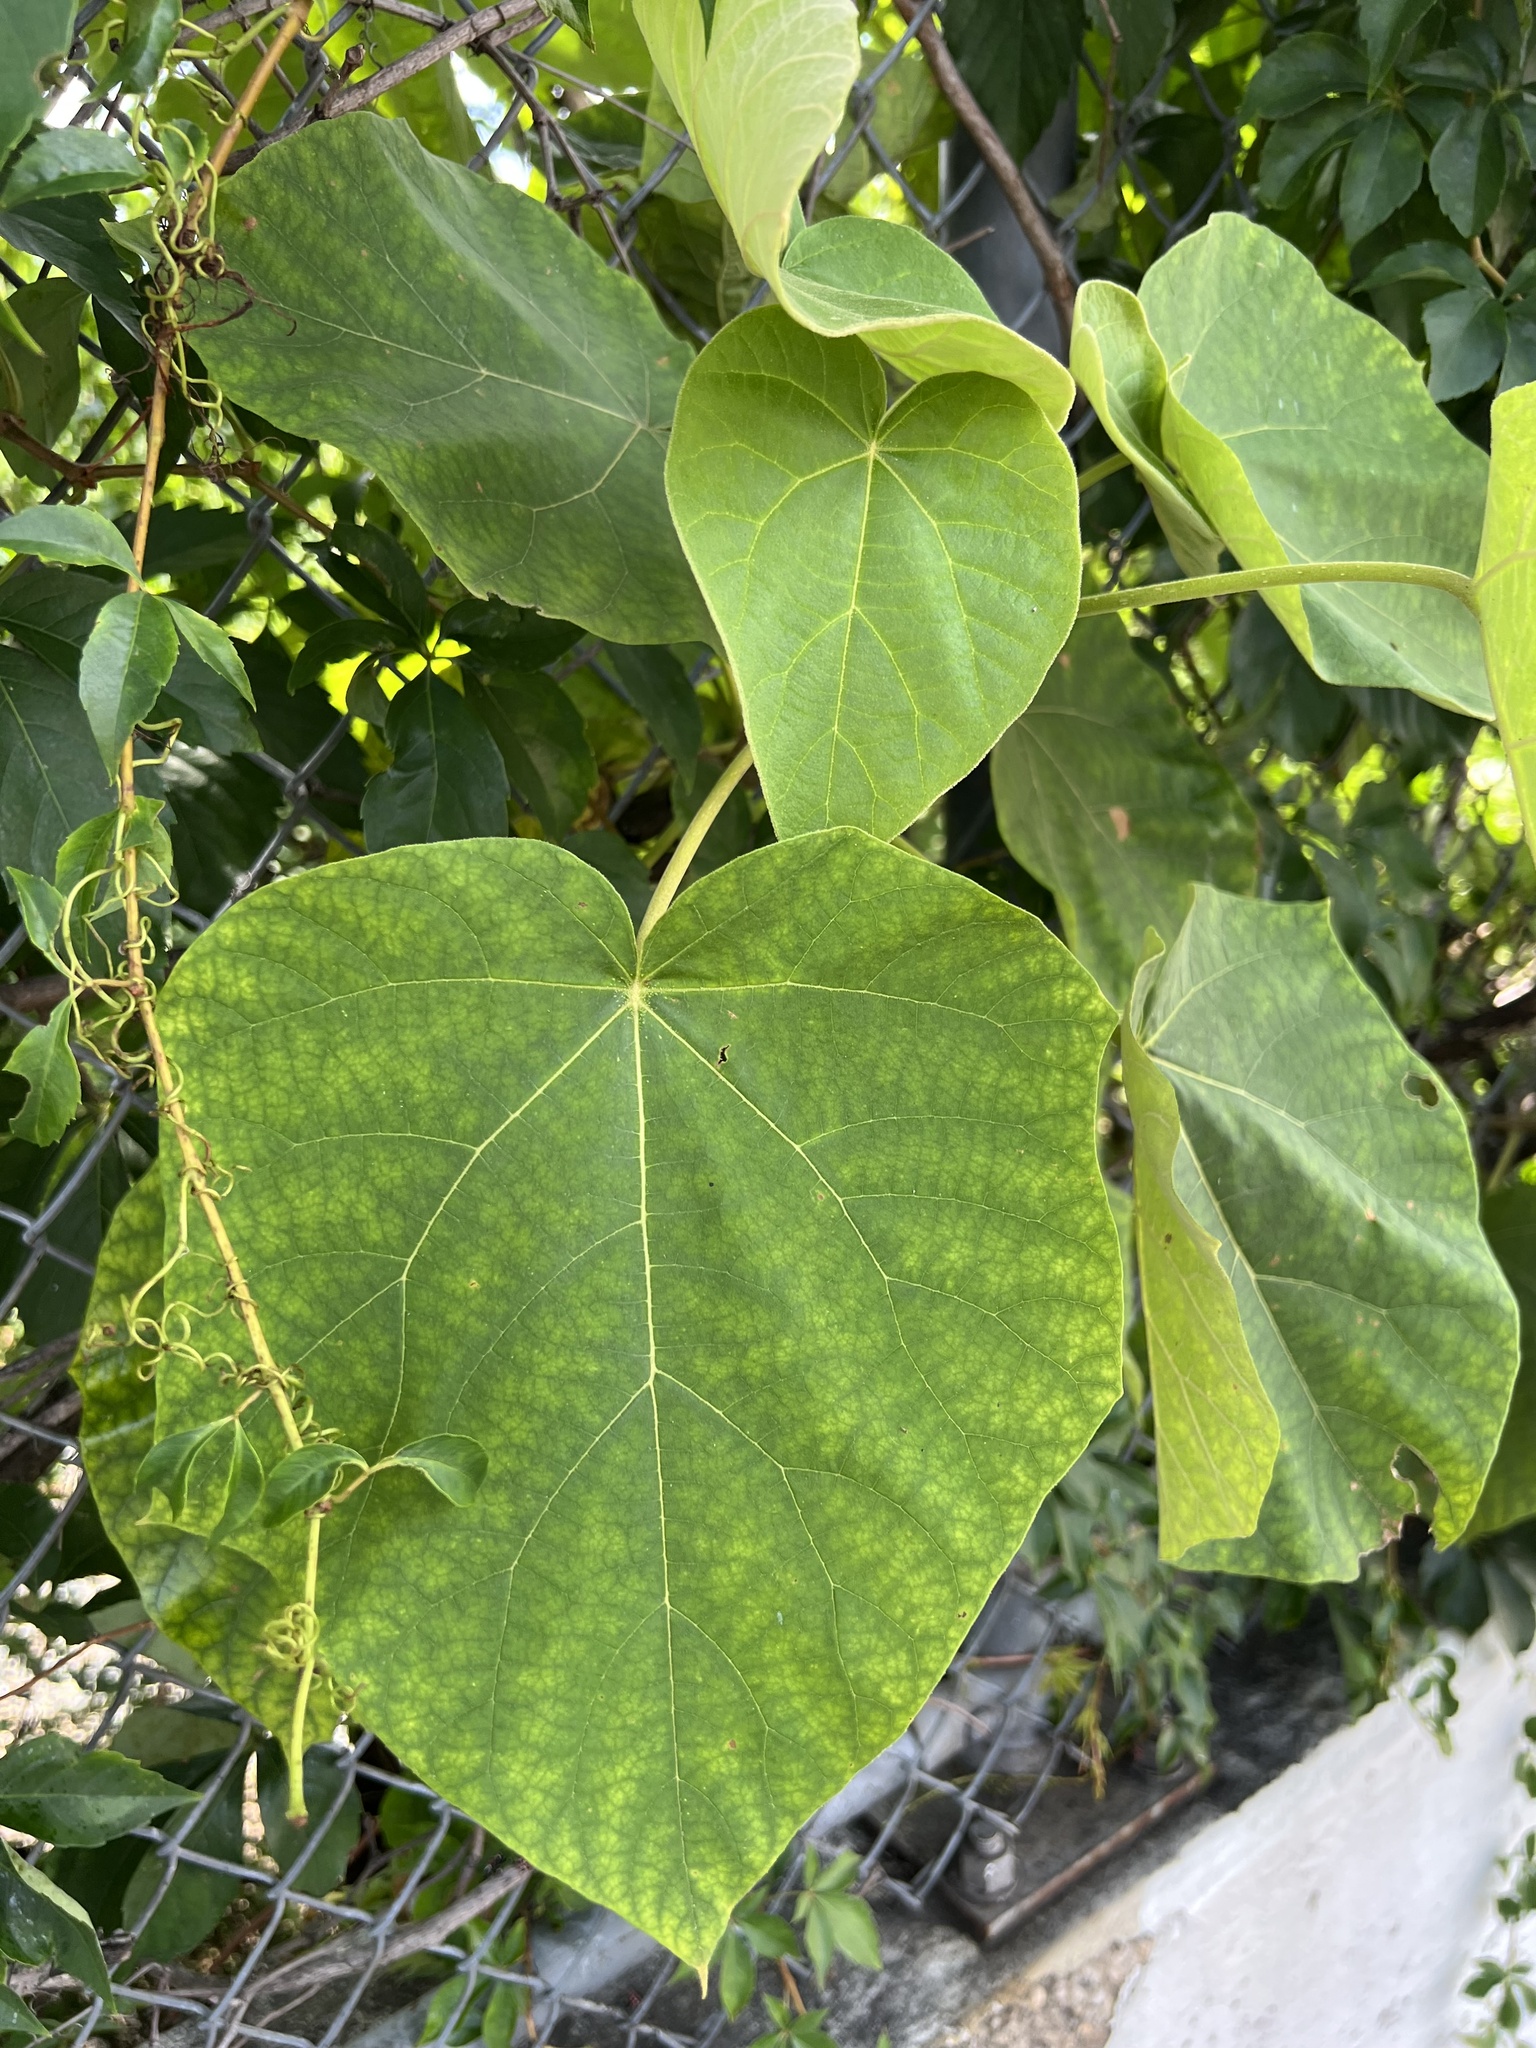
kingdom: Plantae
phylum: Tracheophyta
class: Magnoliopsida
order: Lamiales
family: Paulowniaceae
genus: Paulownia
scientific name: Paulownia tomentosa
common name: Foxglove-tree
